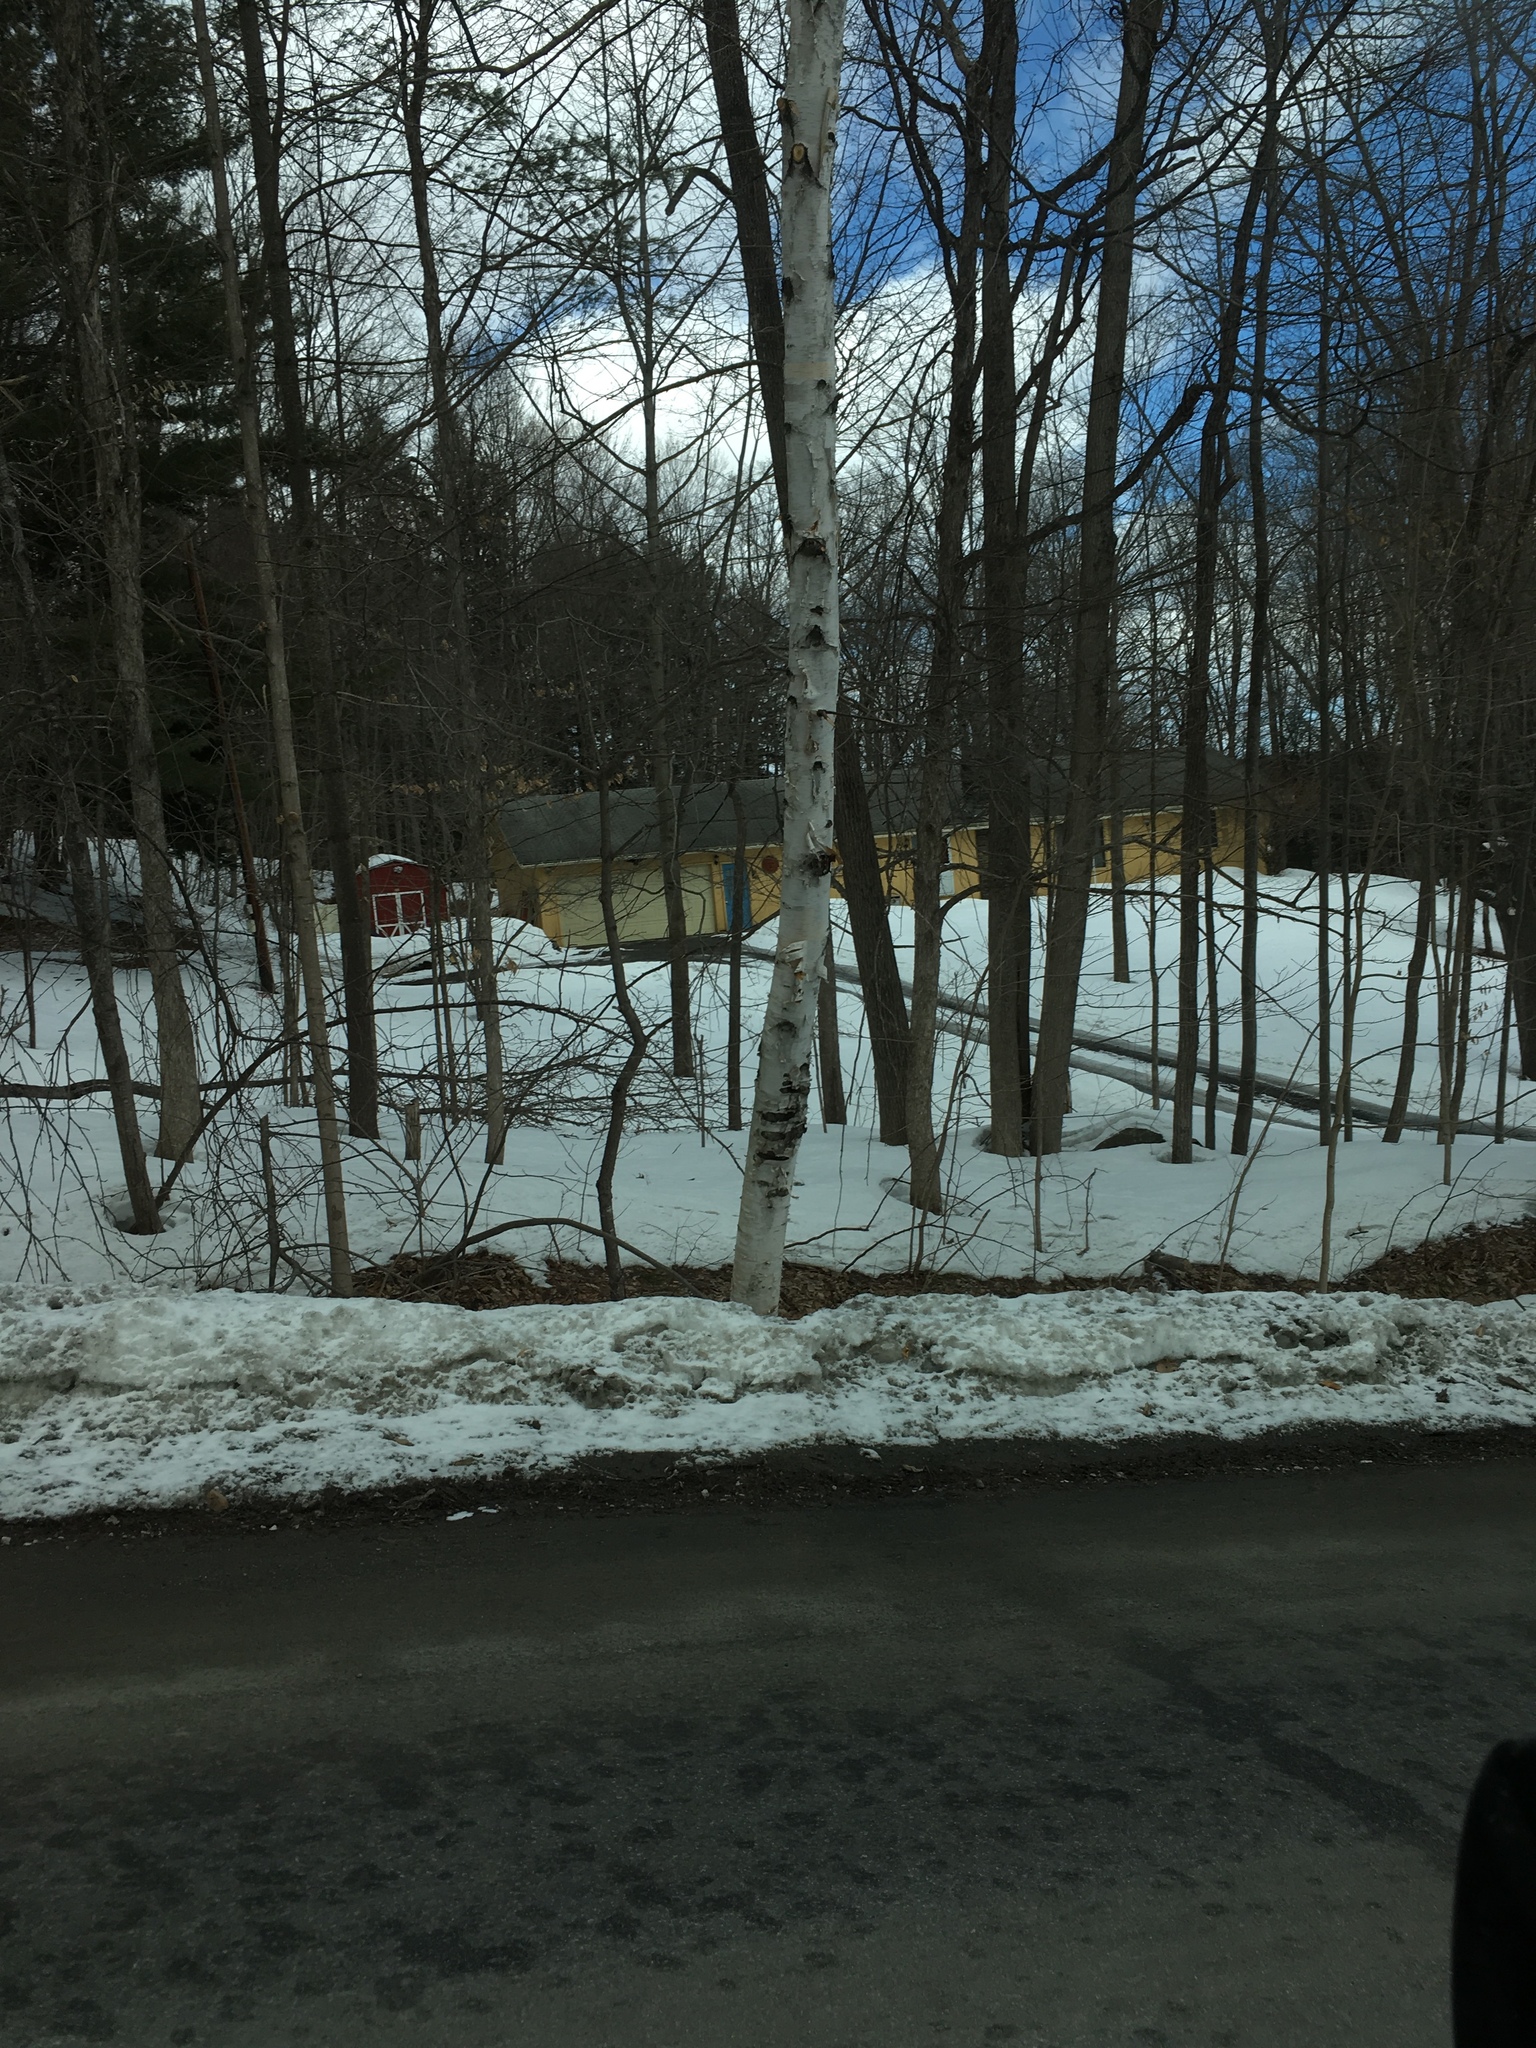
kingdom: Plantae
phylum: Tracheophyta
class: Magnoliopsida
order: Fagales
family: Betulaceae
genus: Betula
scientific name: Betula papyrifera
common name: Paper birch
